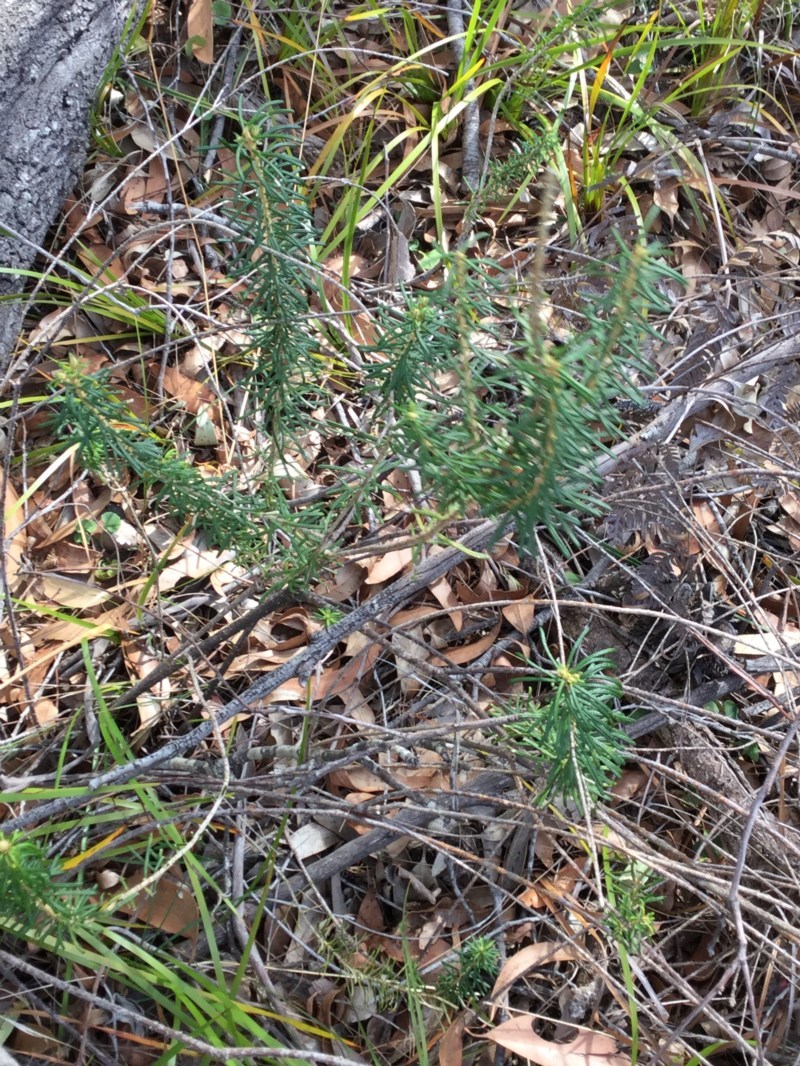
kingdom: Plantae
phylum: Tracheophyta
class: Magnoliopsida
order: Apiales
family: Araliaceae
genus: Astrotricha
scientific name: Astrotricha
